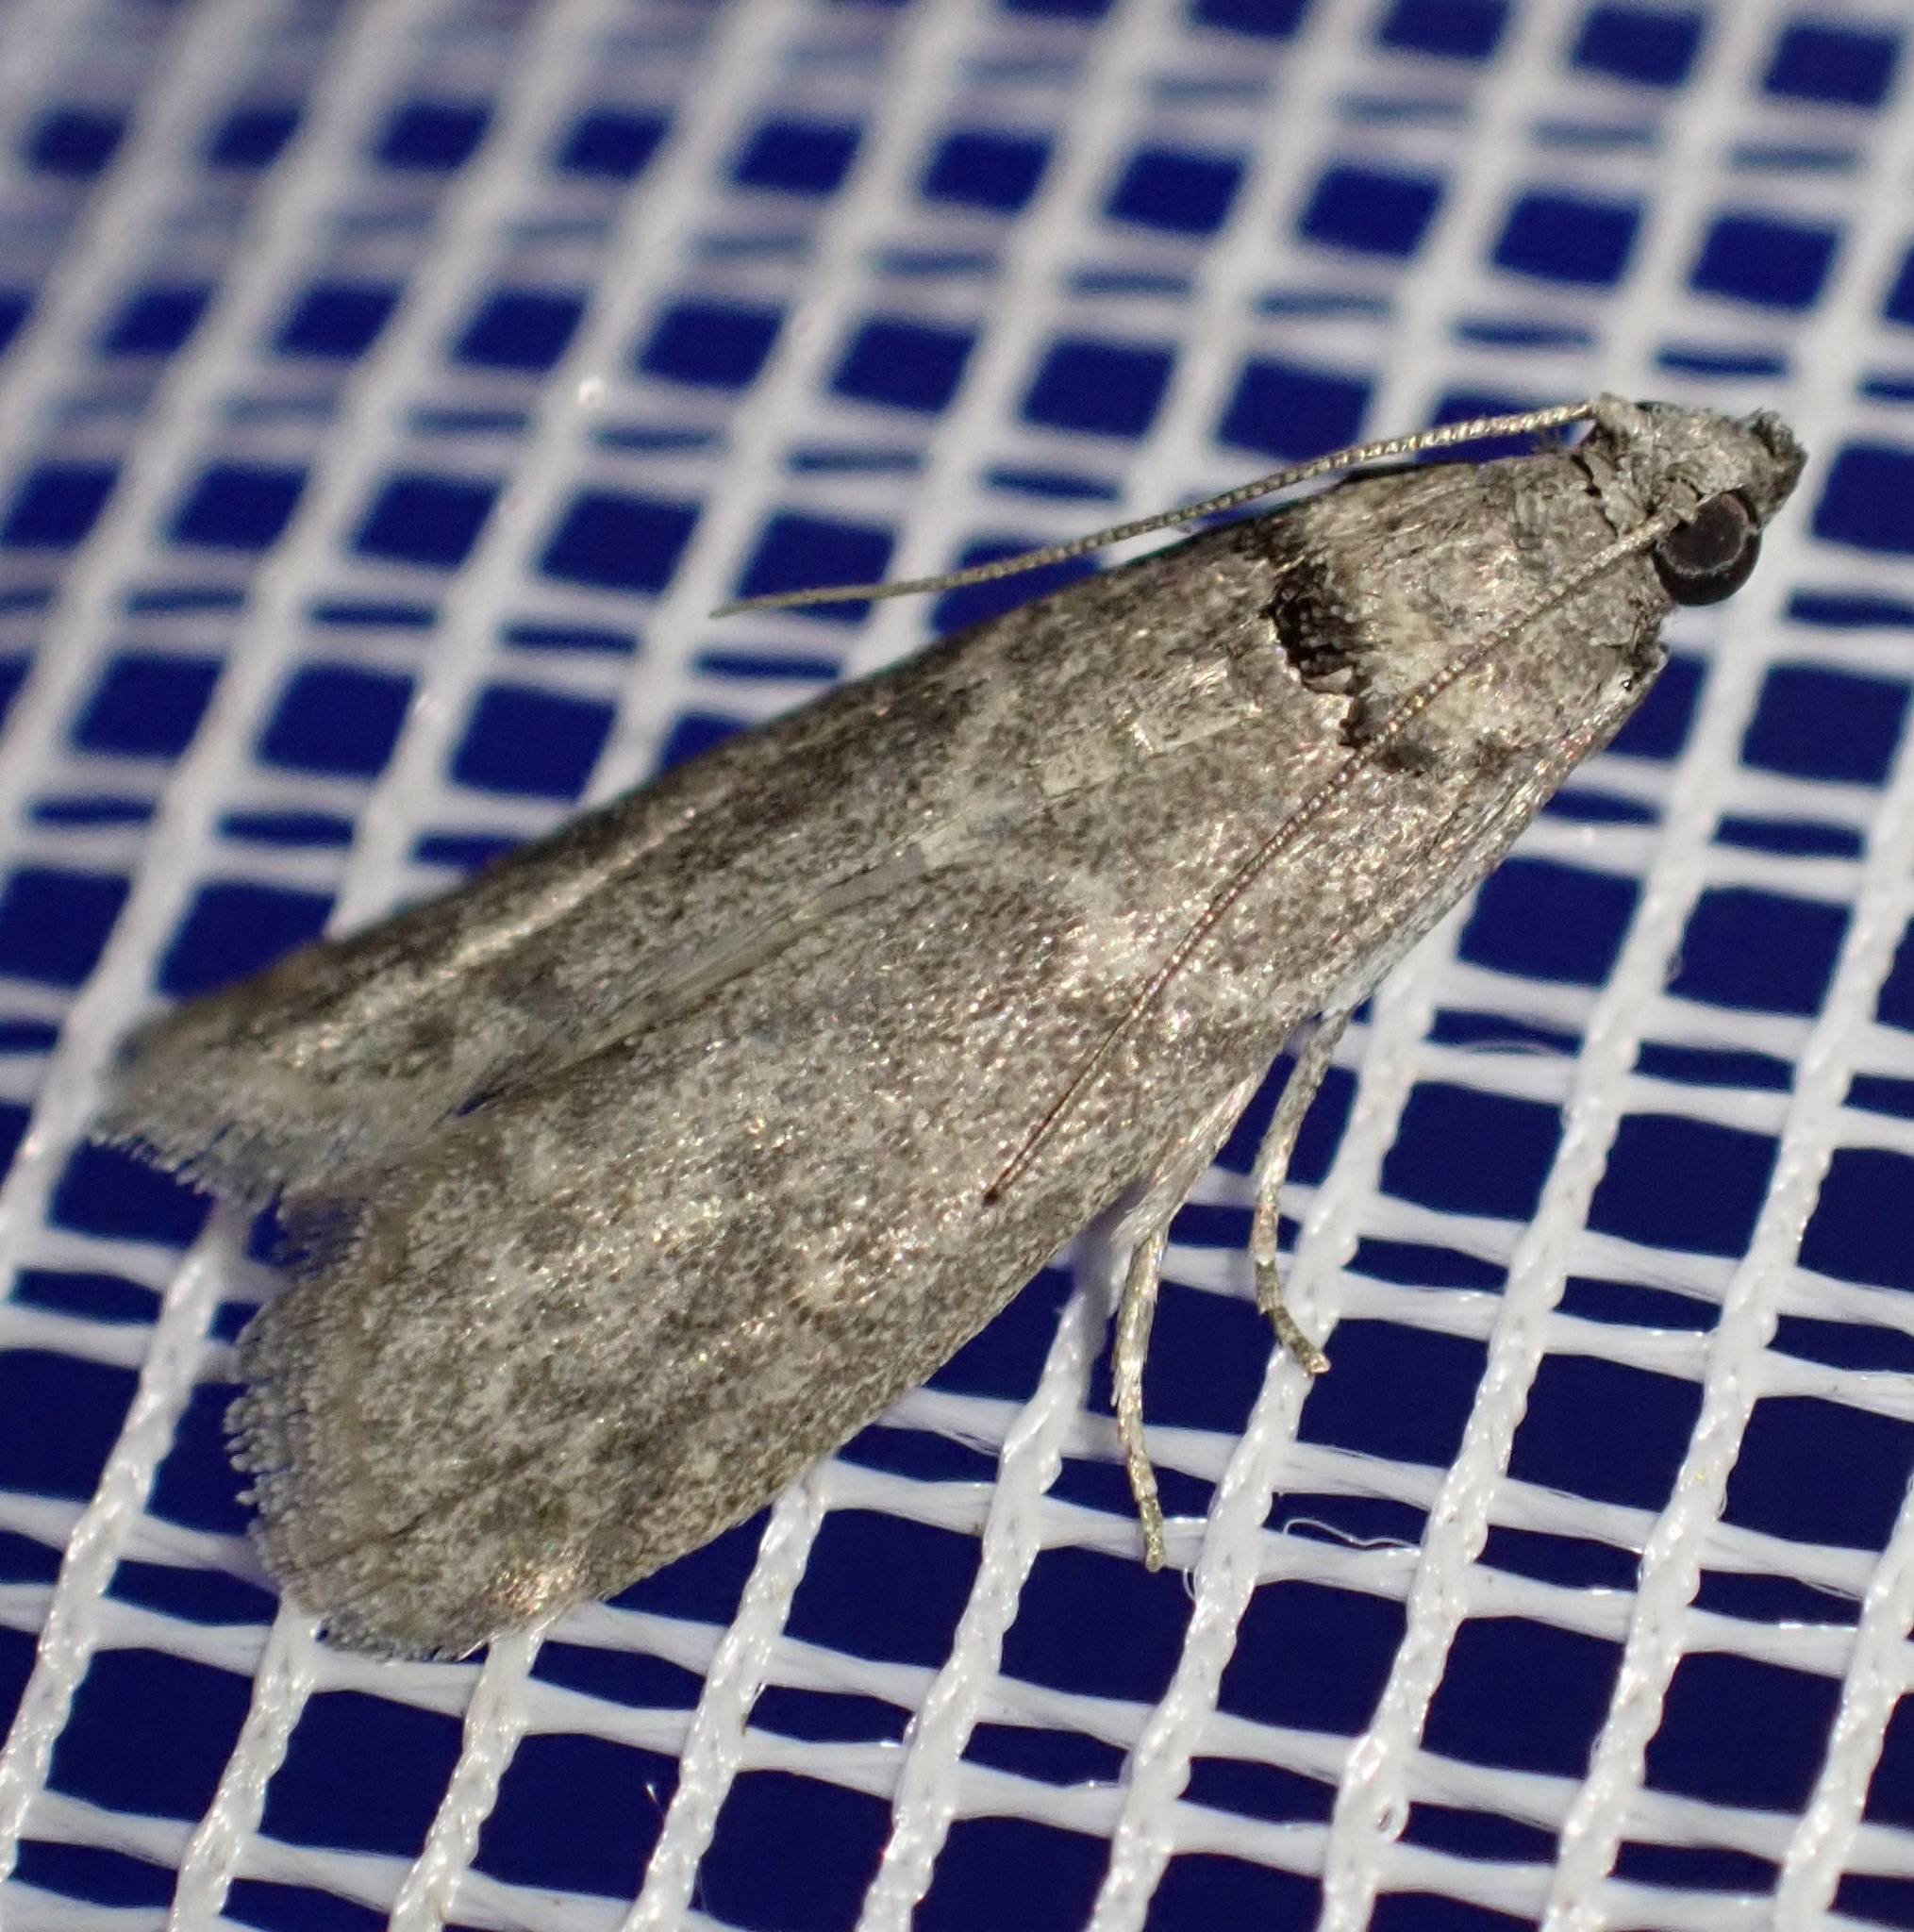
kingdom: Animalia
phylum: Arthropoda
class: Insecta
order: Lepidoptera
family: Pyralidae
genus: Ectomyelois
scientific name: Ectomyelois ceratoniae
